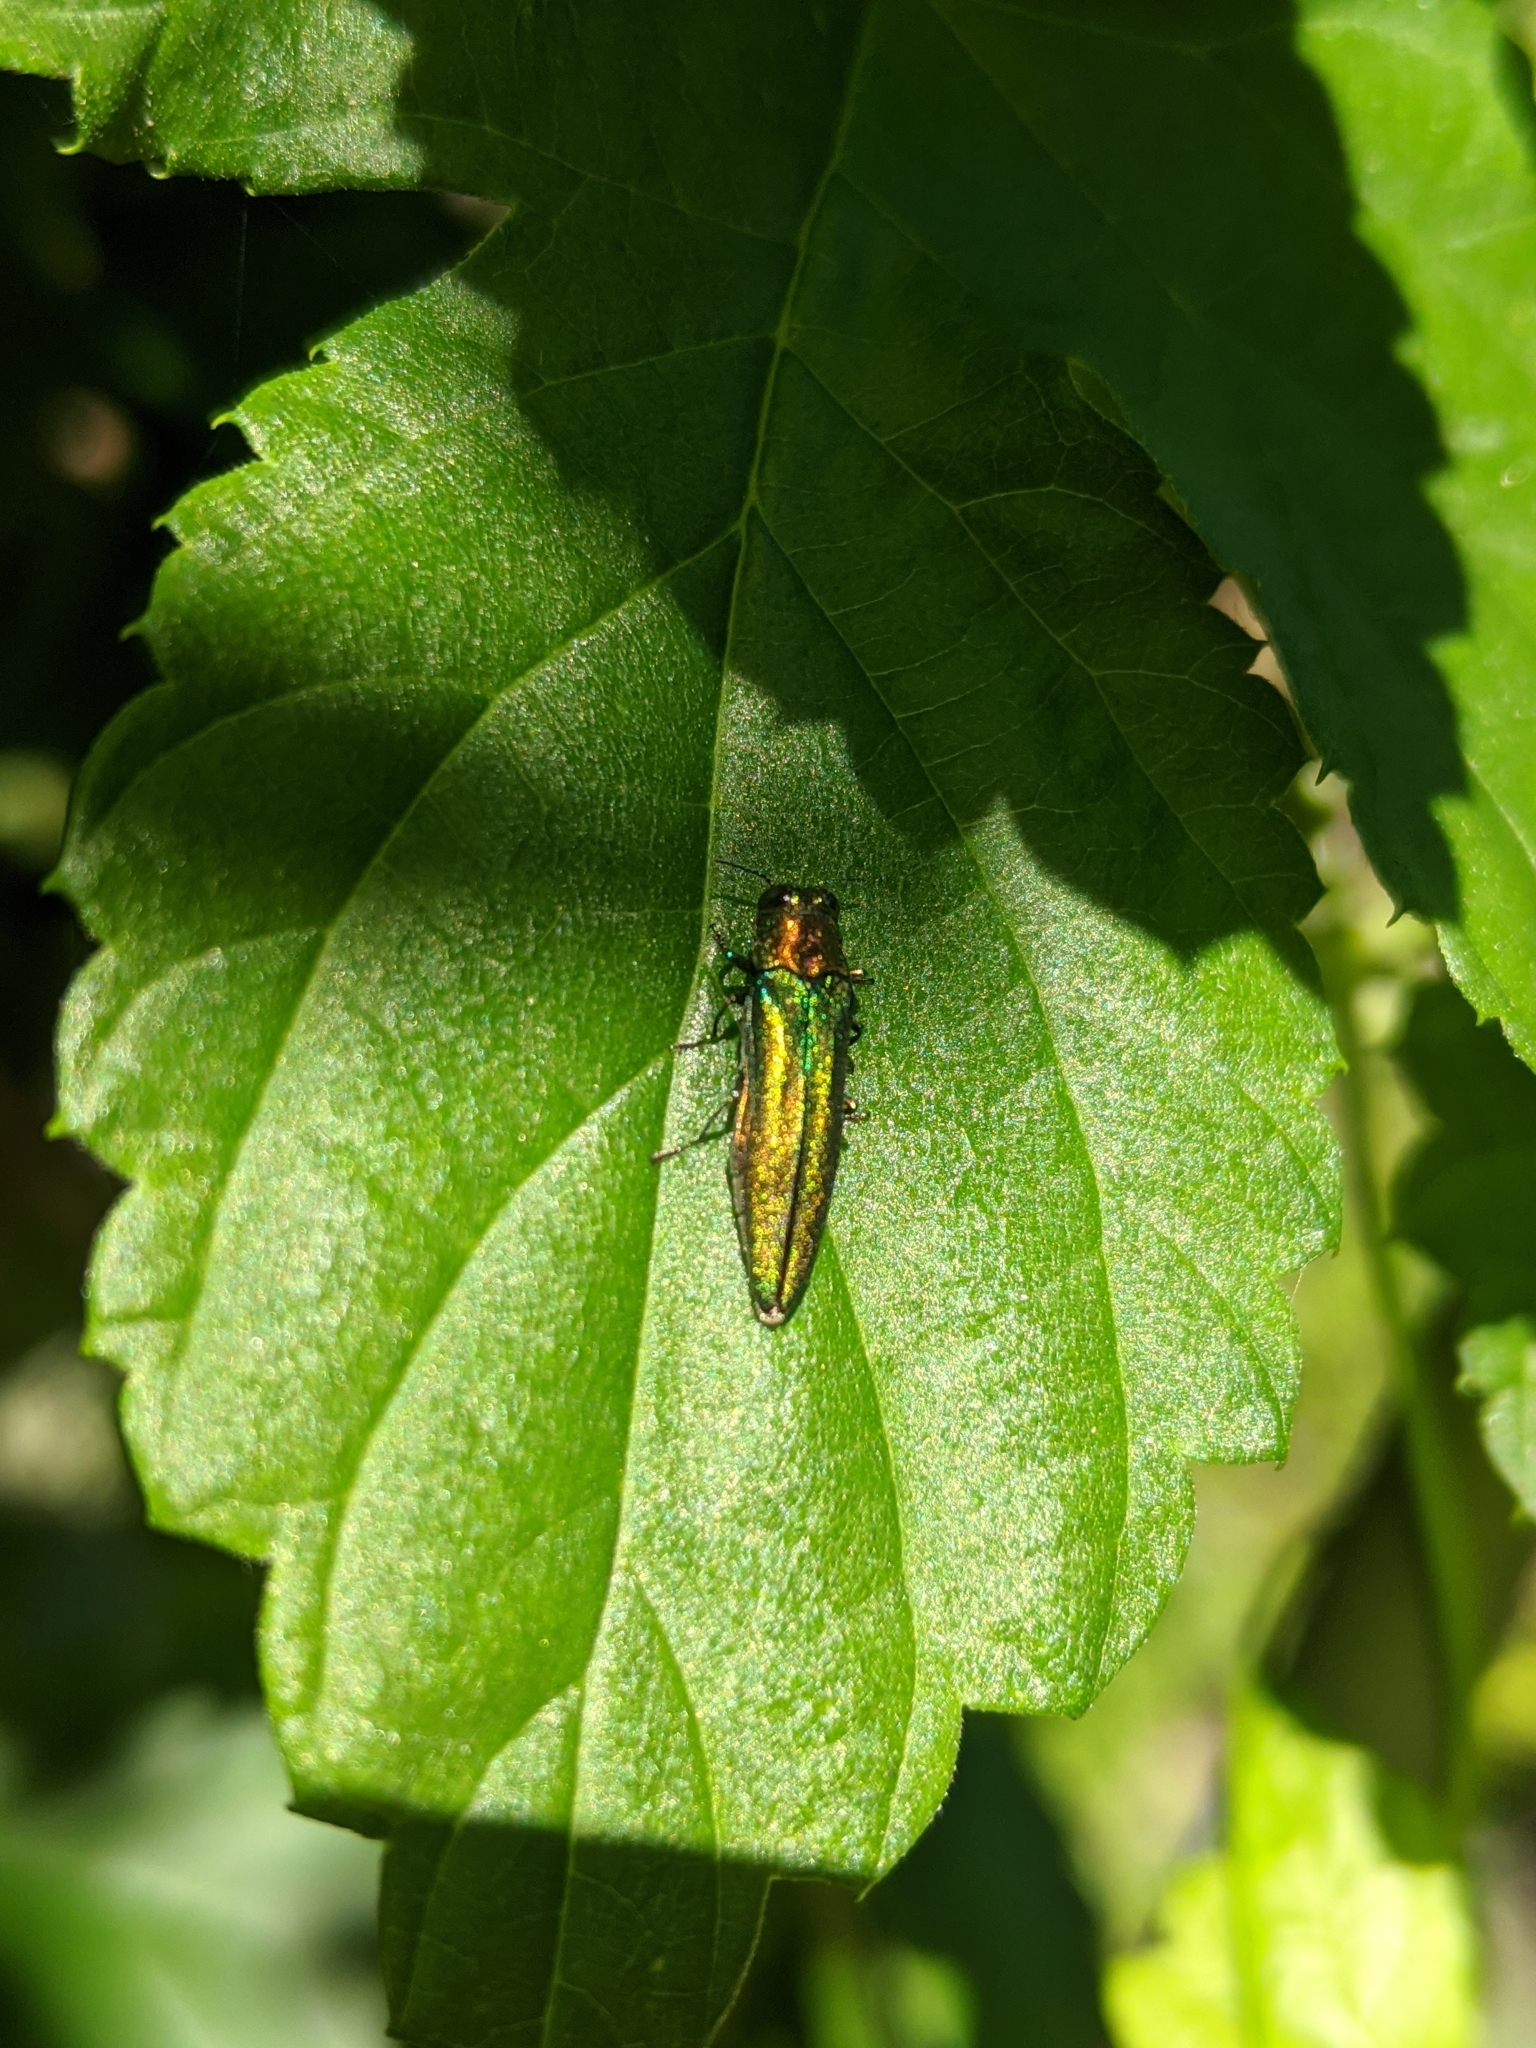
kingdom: Animalia
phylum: Arthropoda
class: Insecta
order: Coleoptera
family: Buprestidae
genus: Agrilus
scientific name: Agrilus planipennis
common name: Emerald ash borer
